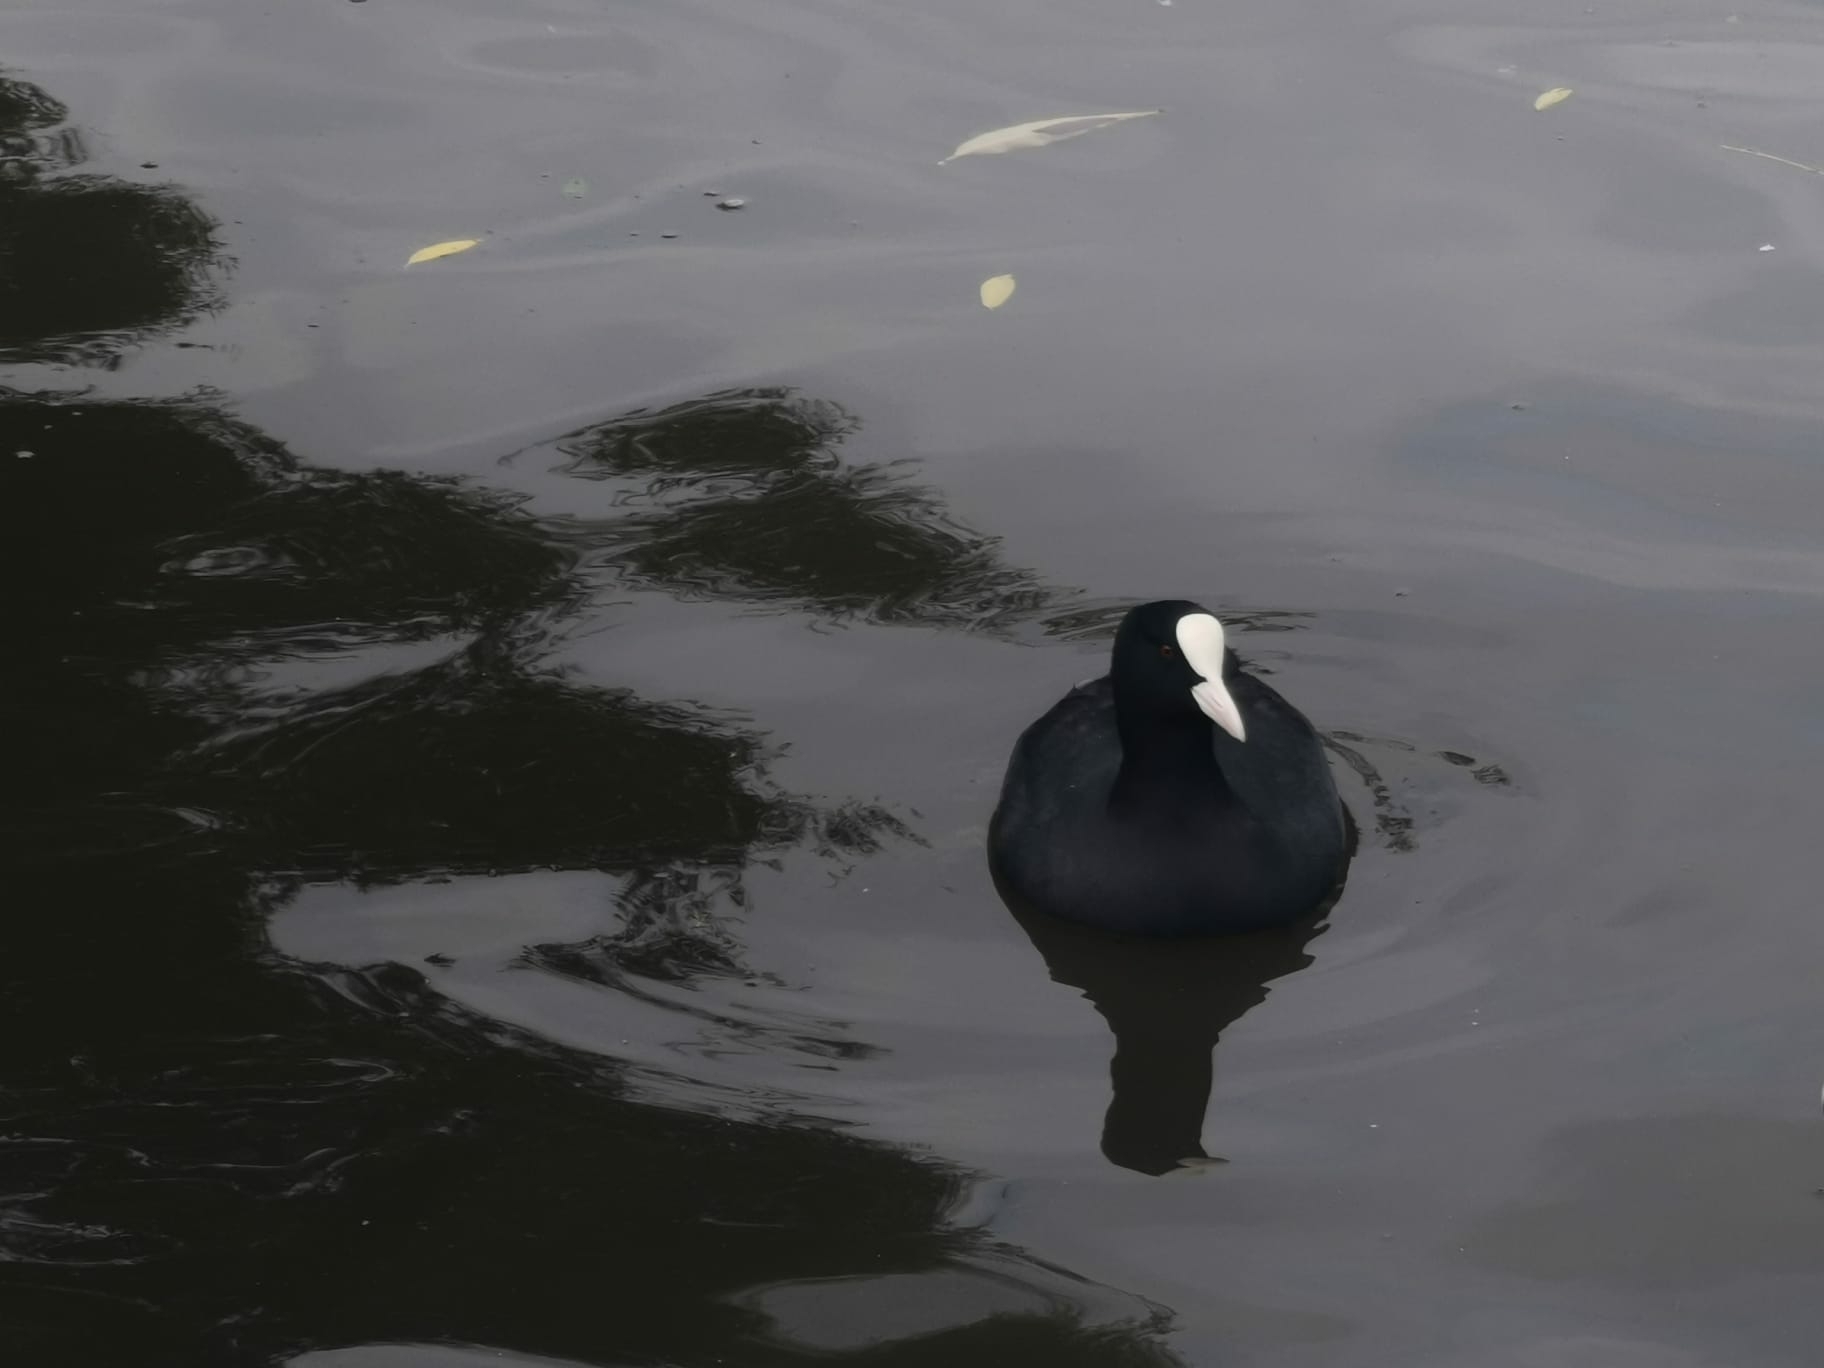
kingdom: Animalia
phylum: Chordata
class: Aves
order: Gruiformes
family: Rallidae
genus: Fulica
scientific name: Fulica atra
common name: Eurasian coot
